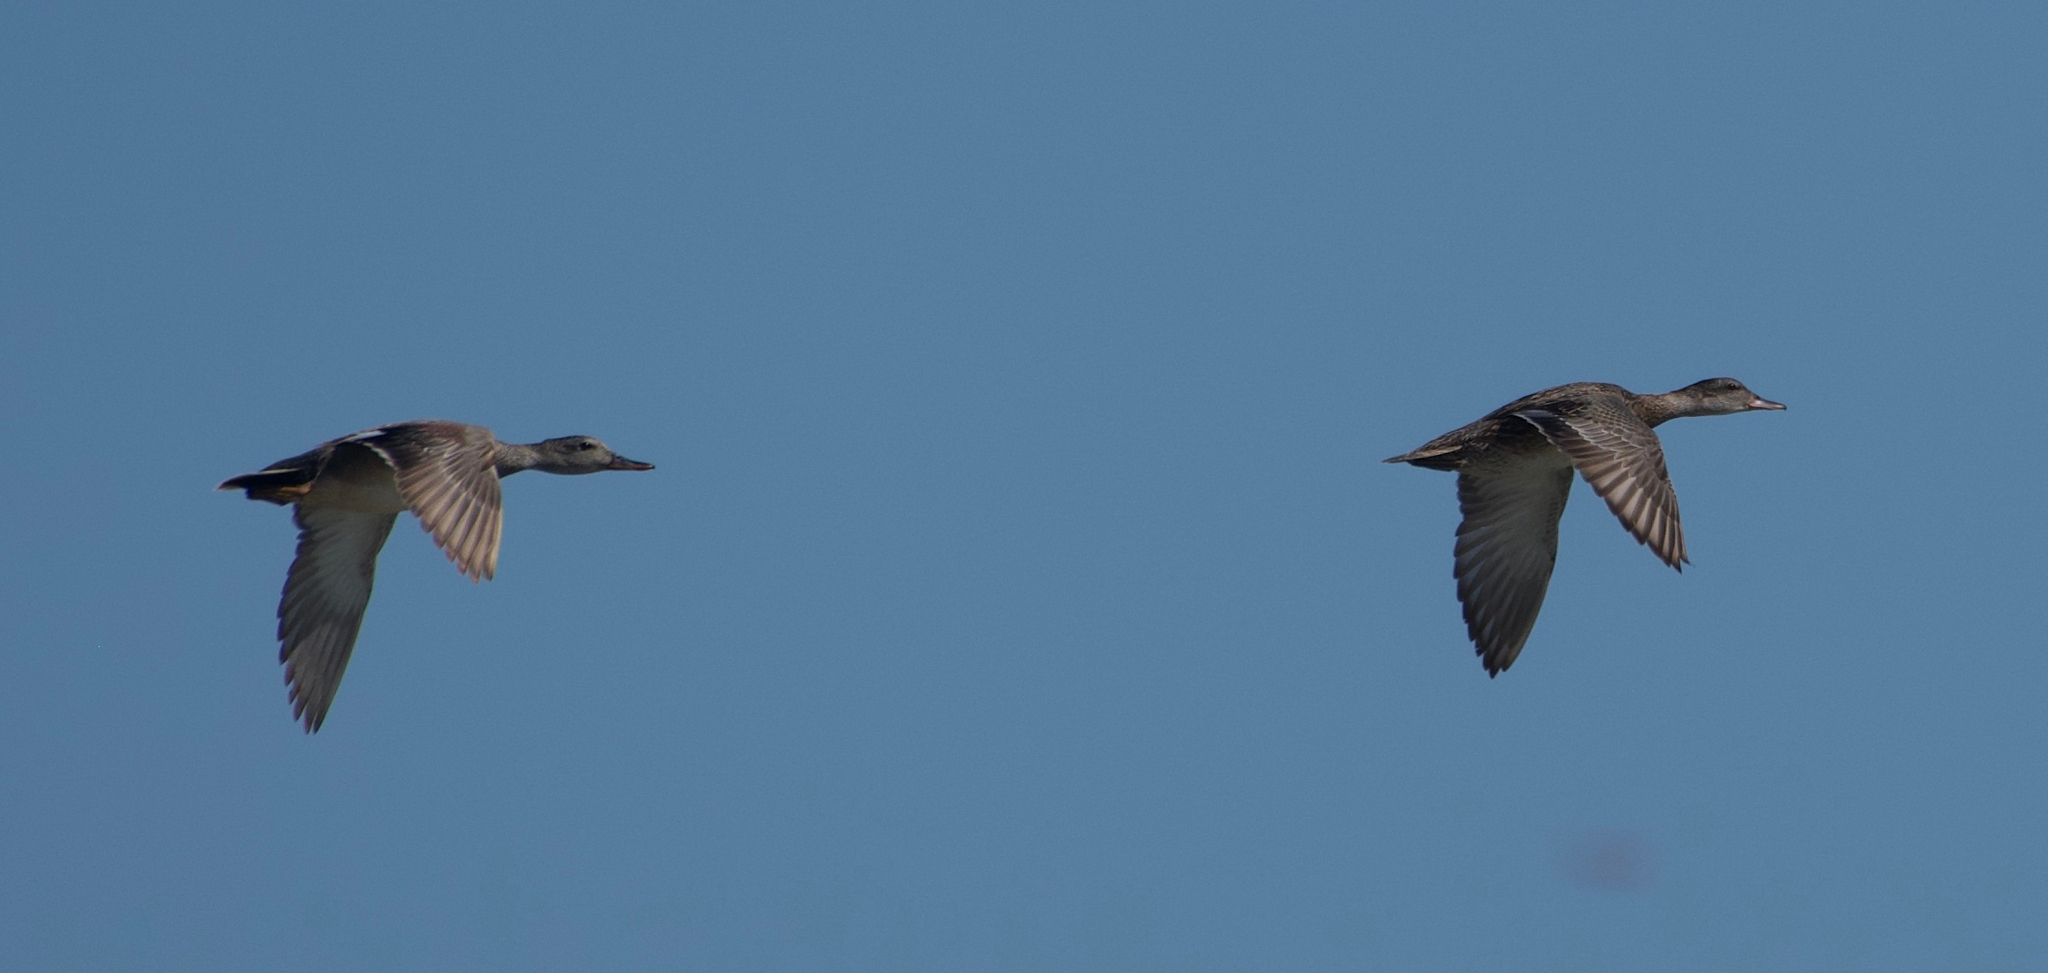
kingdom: Animalia
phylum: Chordata
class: Aves
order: Anseriformes
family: Anatidae
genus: Mareca
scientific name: Mareca strepera
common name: Gadwall
